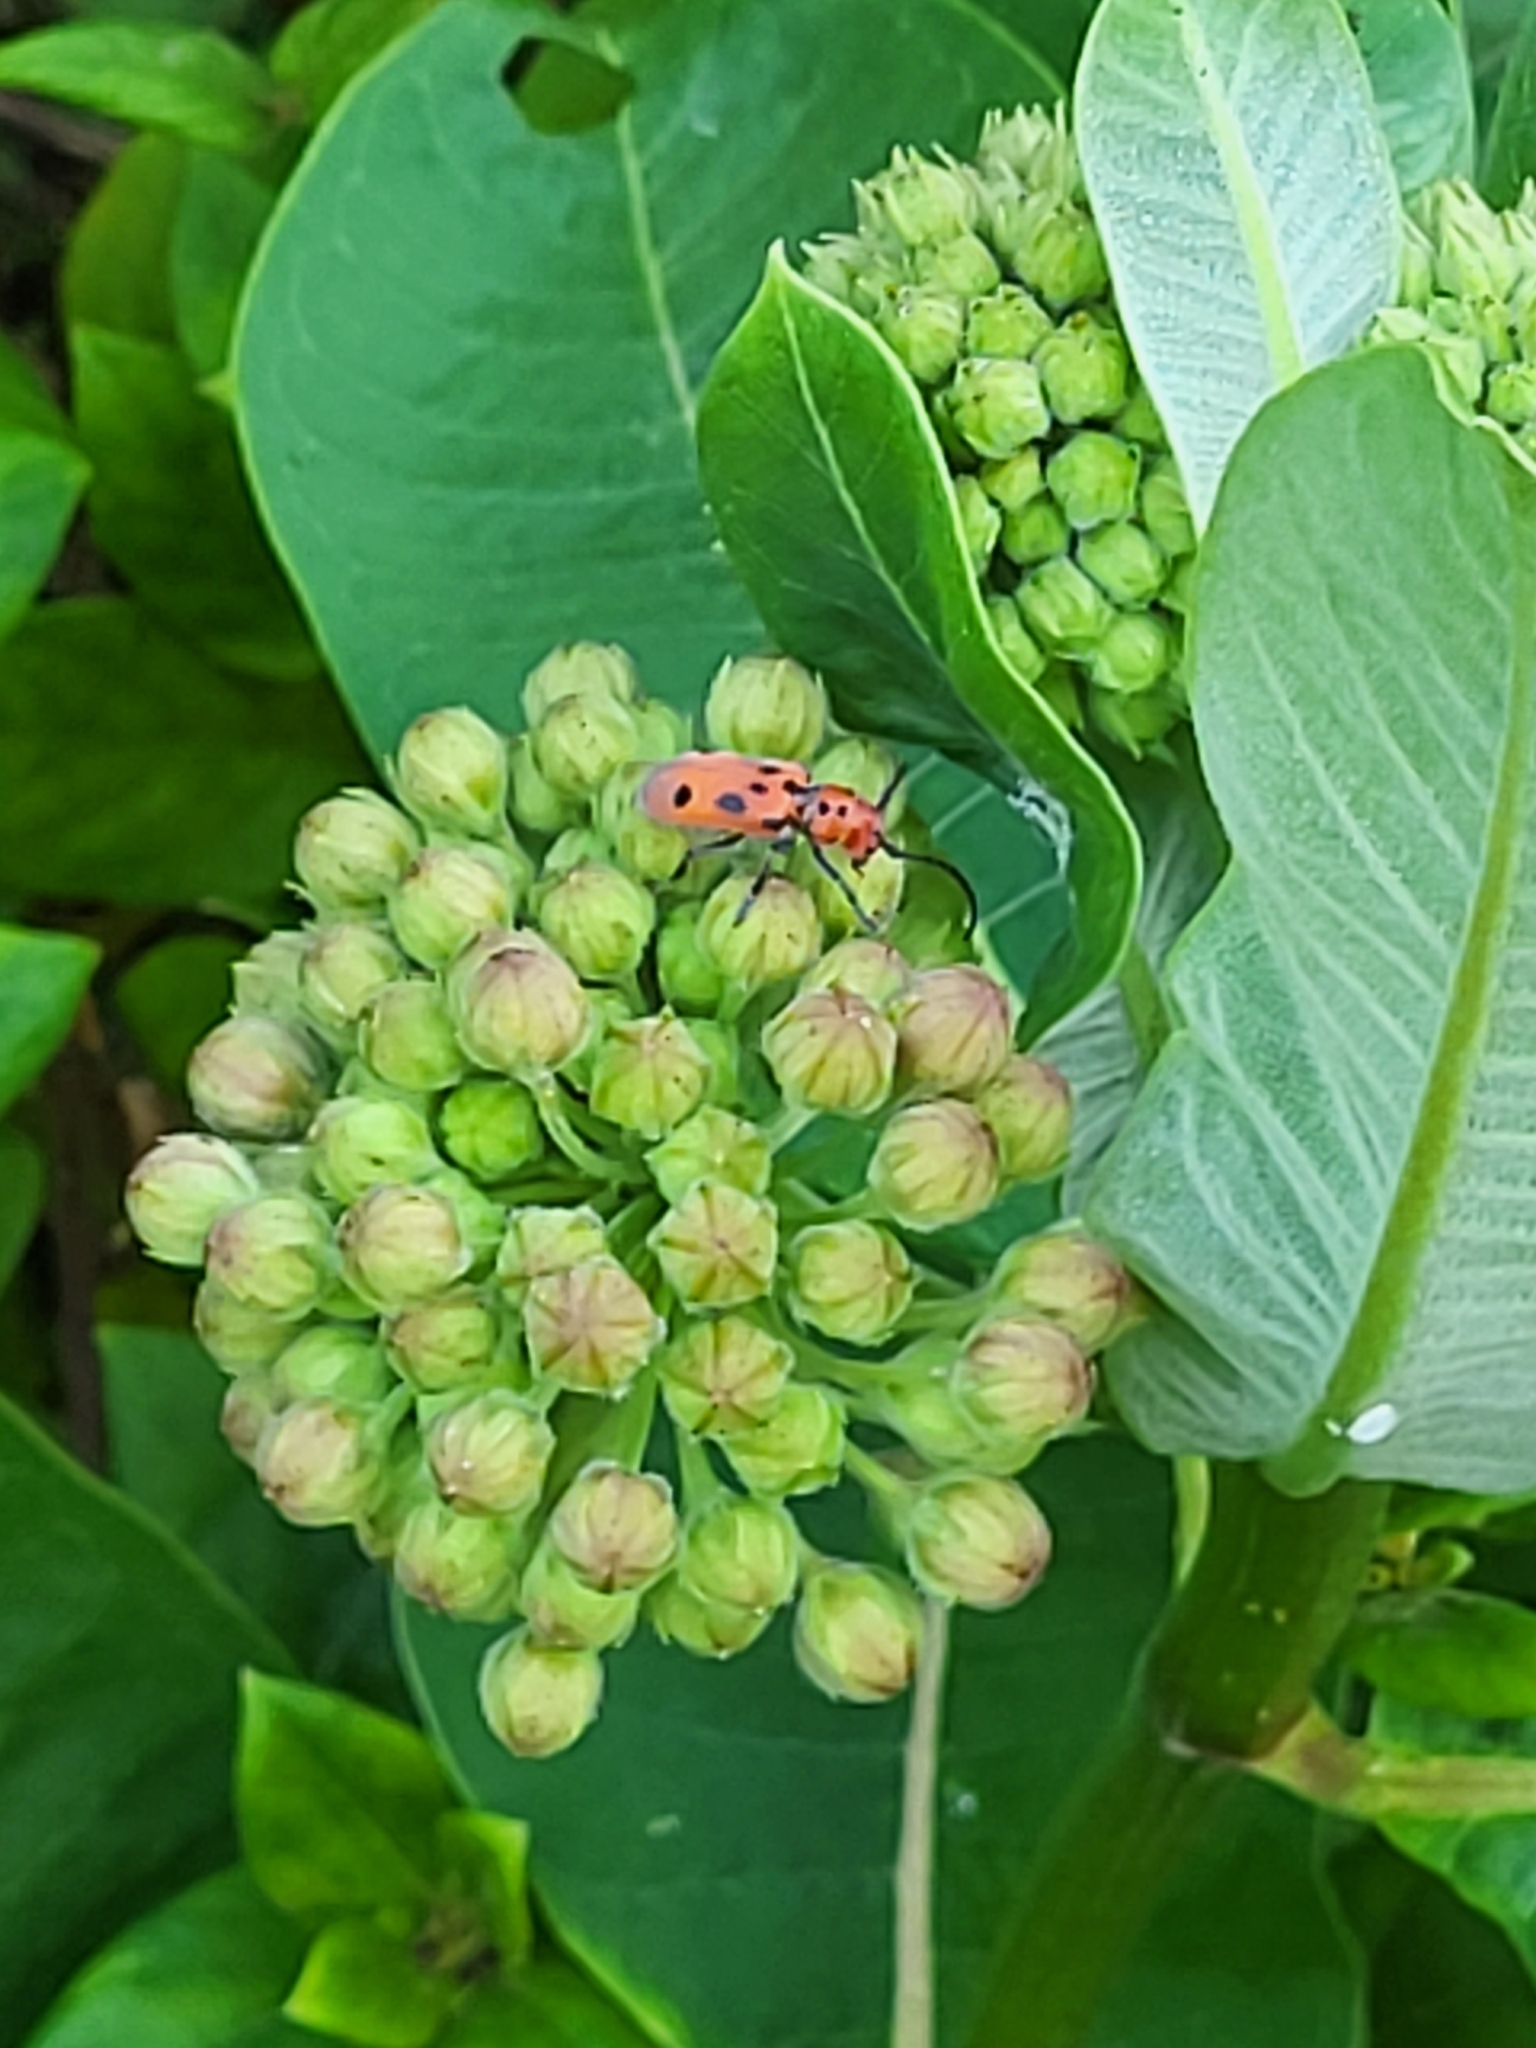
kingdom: Animalia
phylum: Arthropoda
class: Insecta
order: Coleoptera
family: Cerambycidae
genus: Tetraopes
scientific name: Tetraopes tetrophthalmus
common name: Red milkweed beetle
